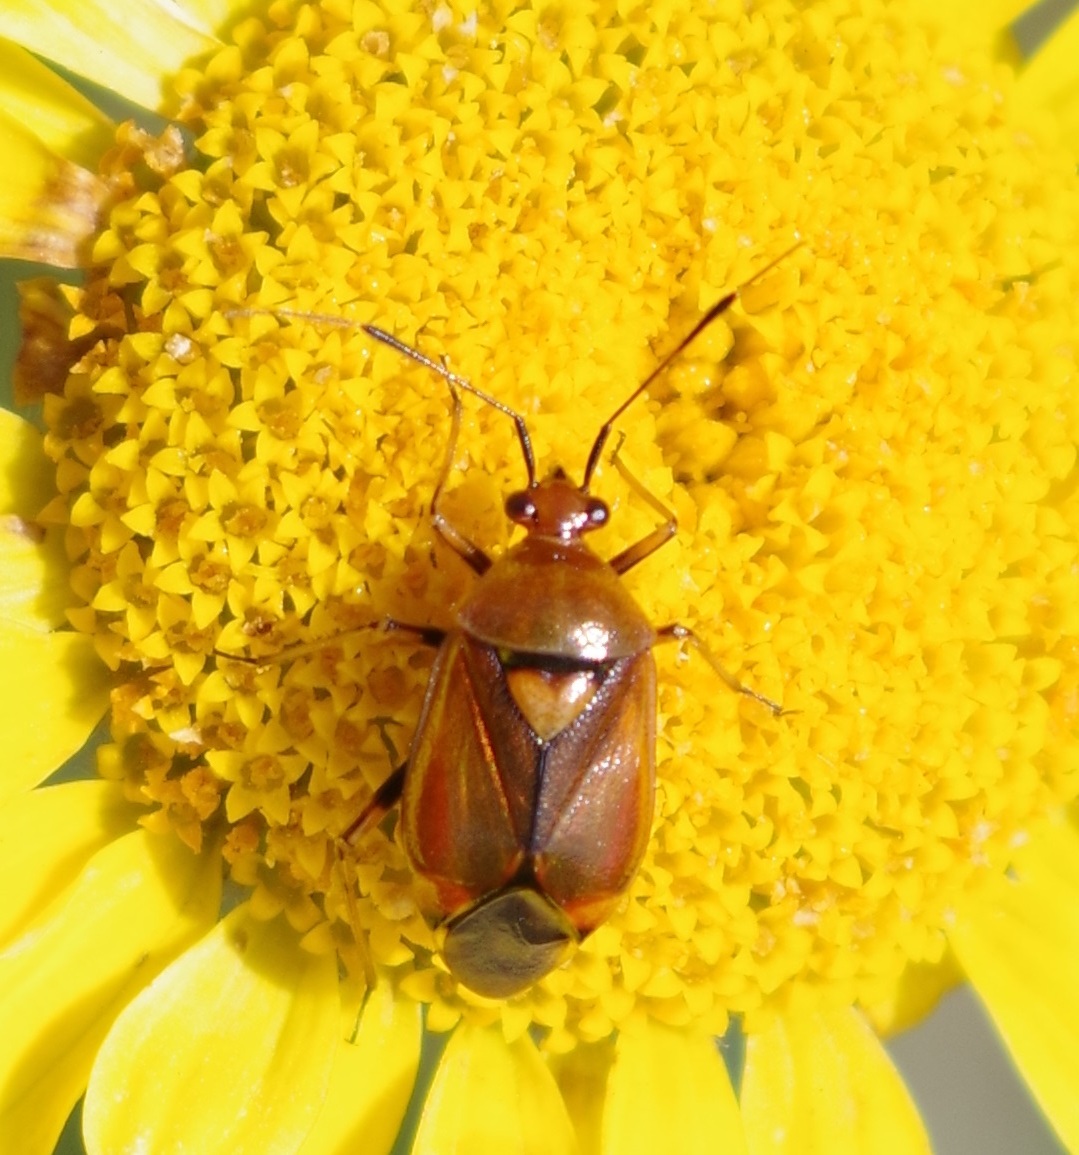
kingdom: Animalia
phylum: Arthropoda
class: Insecta
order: Hemiptera
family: Miridae
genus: Deraeocoris
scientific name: Deraeocoris ruber
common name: Plant bug
